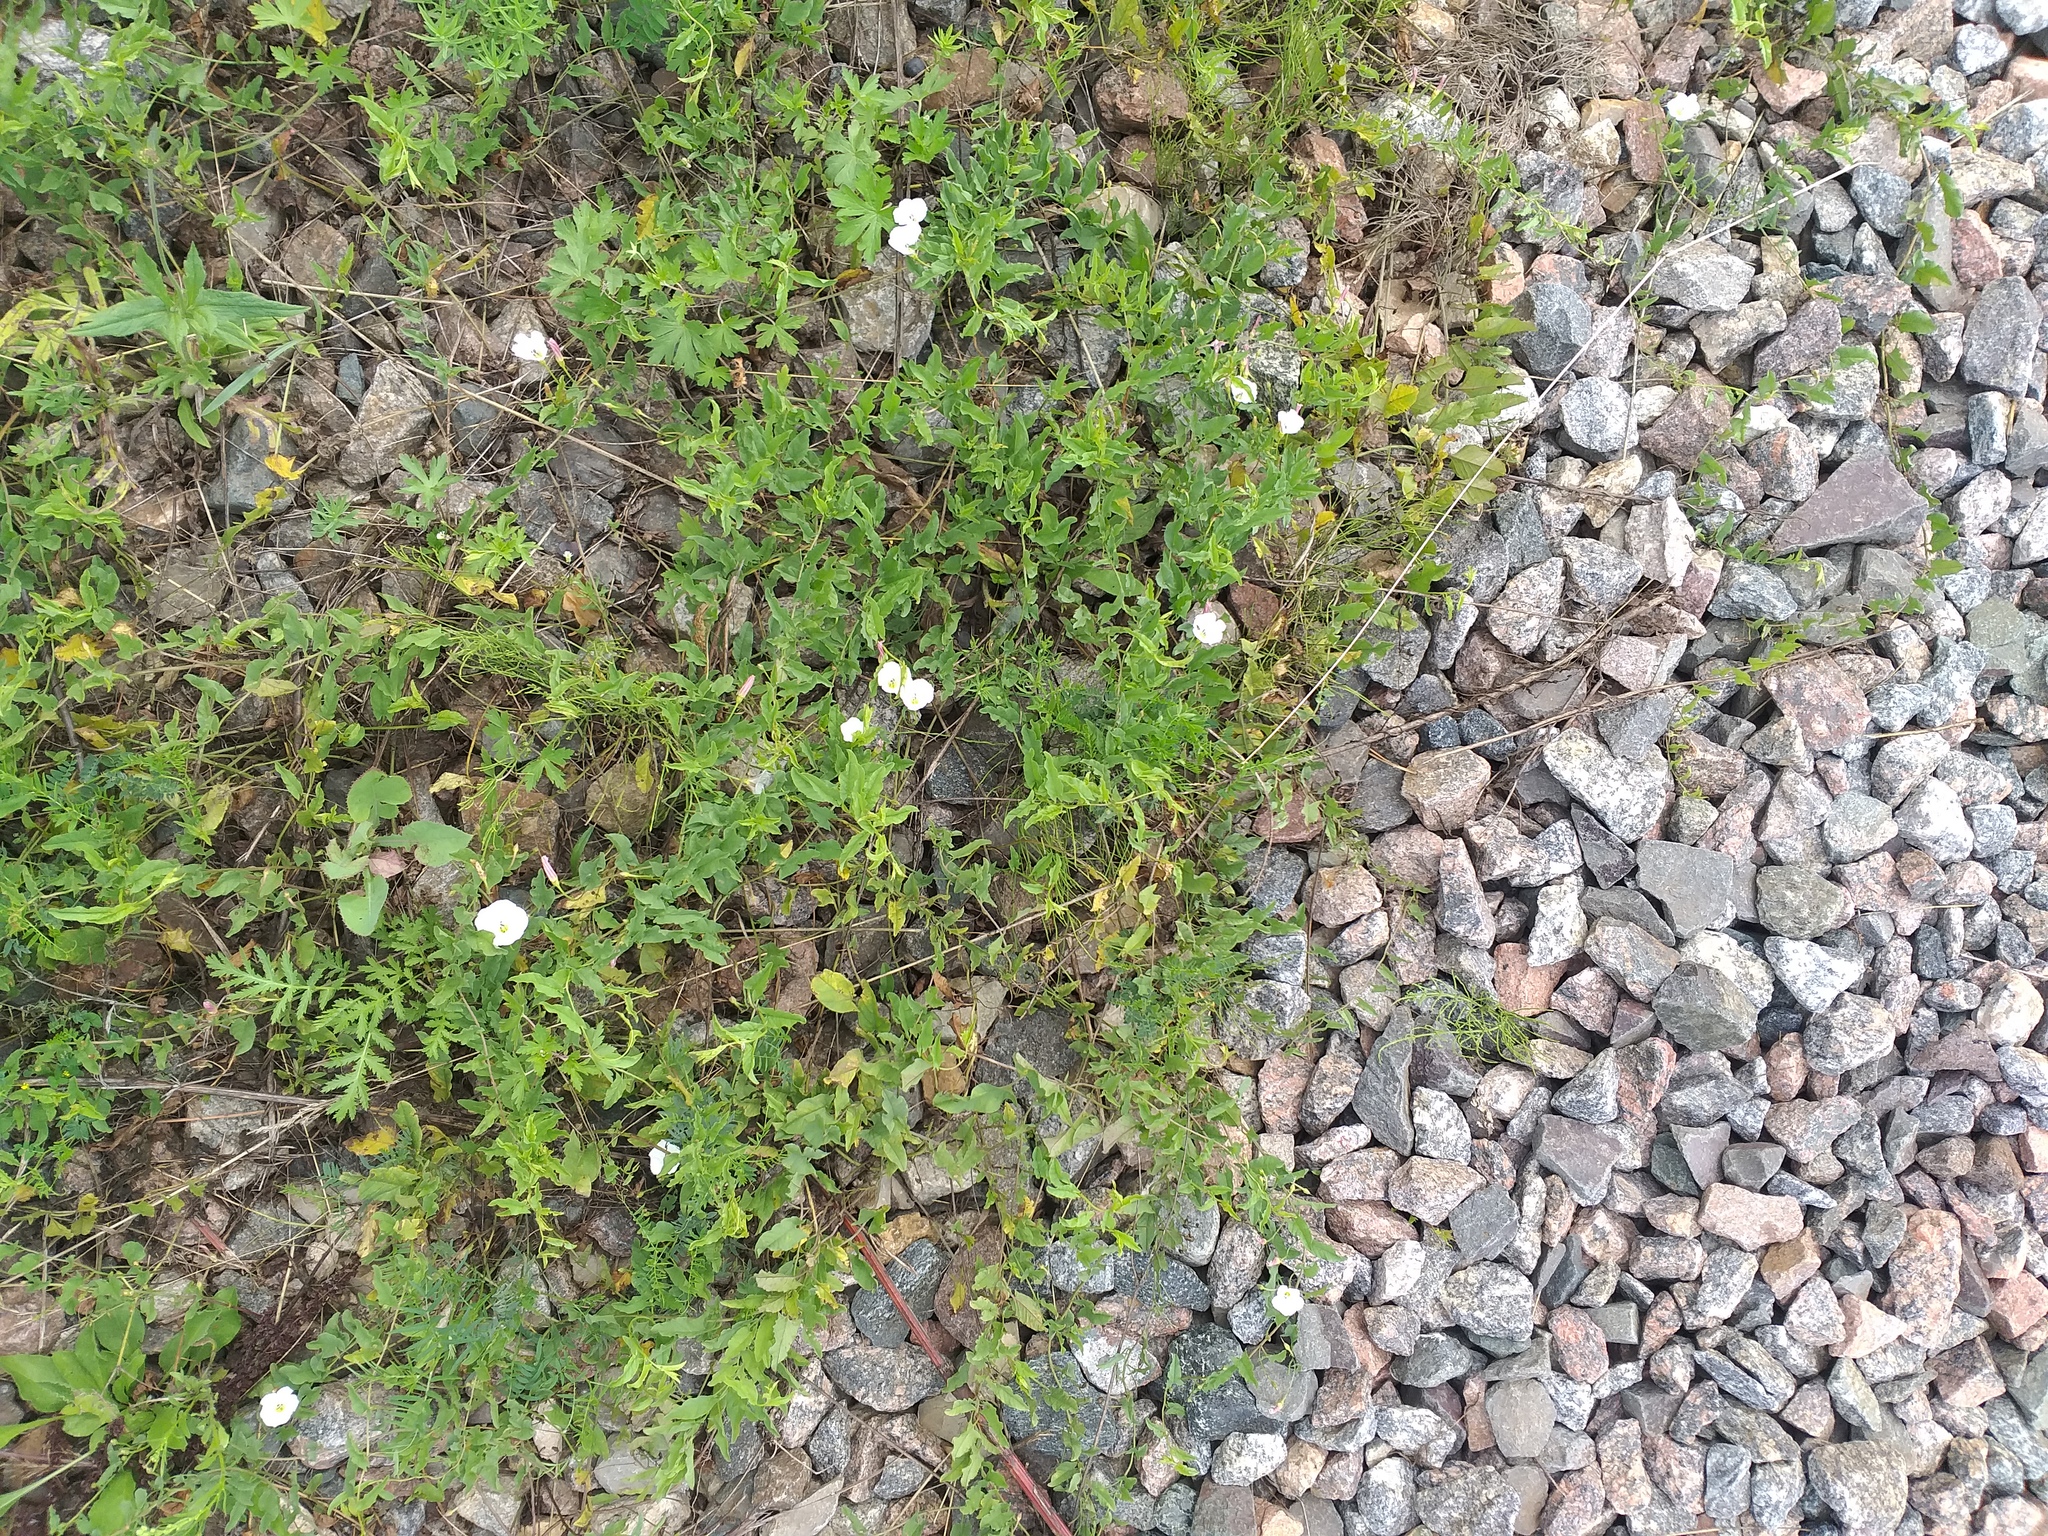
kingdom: Plantae
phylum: Tracheophyta
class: Magnoliopsida
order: Solanales
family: Convolvulaceae
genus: Convolvulus
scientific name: Convolvulus arvensis
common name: Field bindweed
